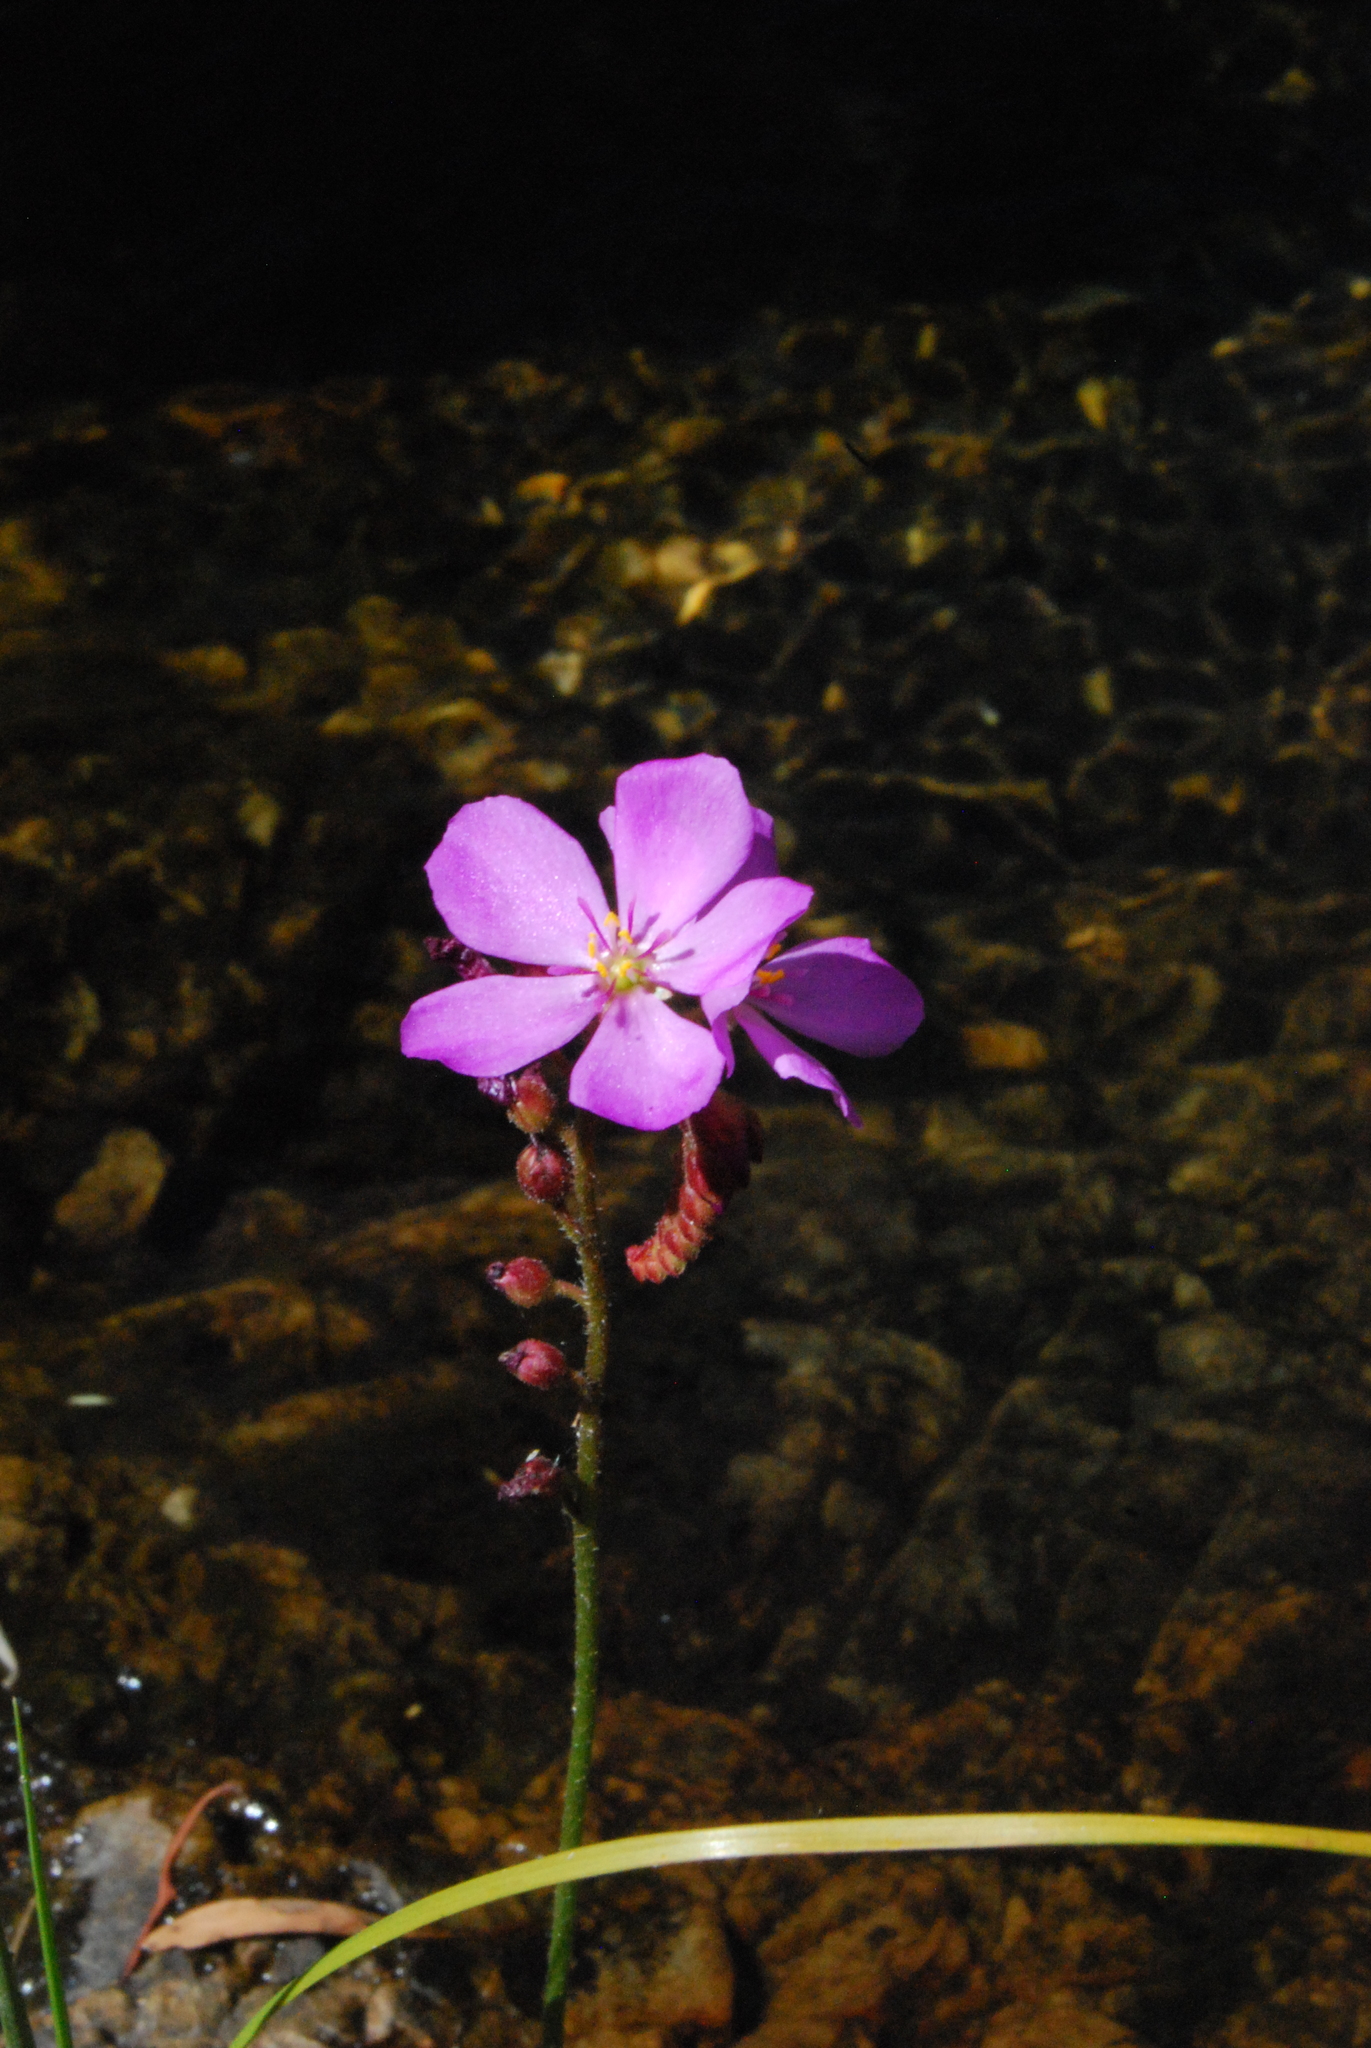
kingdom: Plantae
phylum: Tracheophyta
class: Magnoliopsida
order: Caryophyllales
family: Droseraceae
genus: Drosera
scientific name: Drosera capensis
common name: Cape sundew
